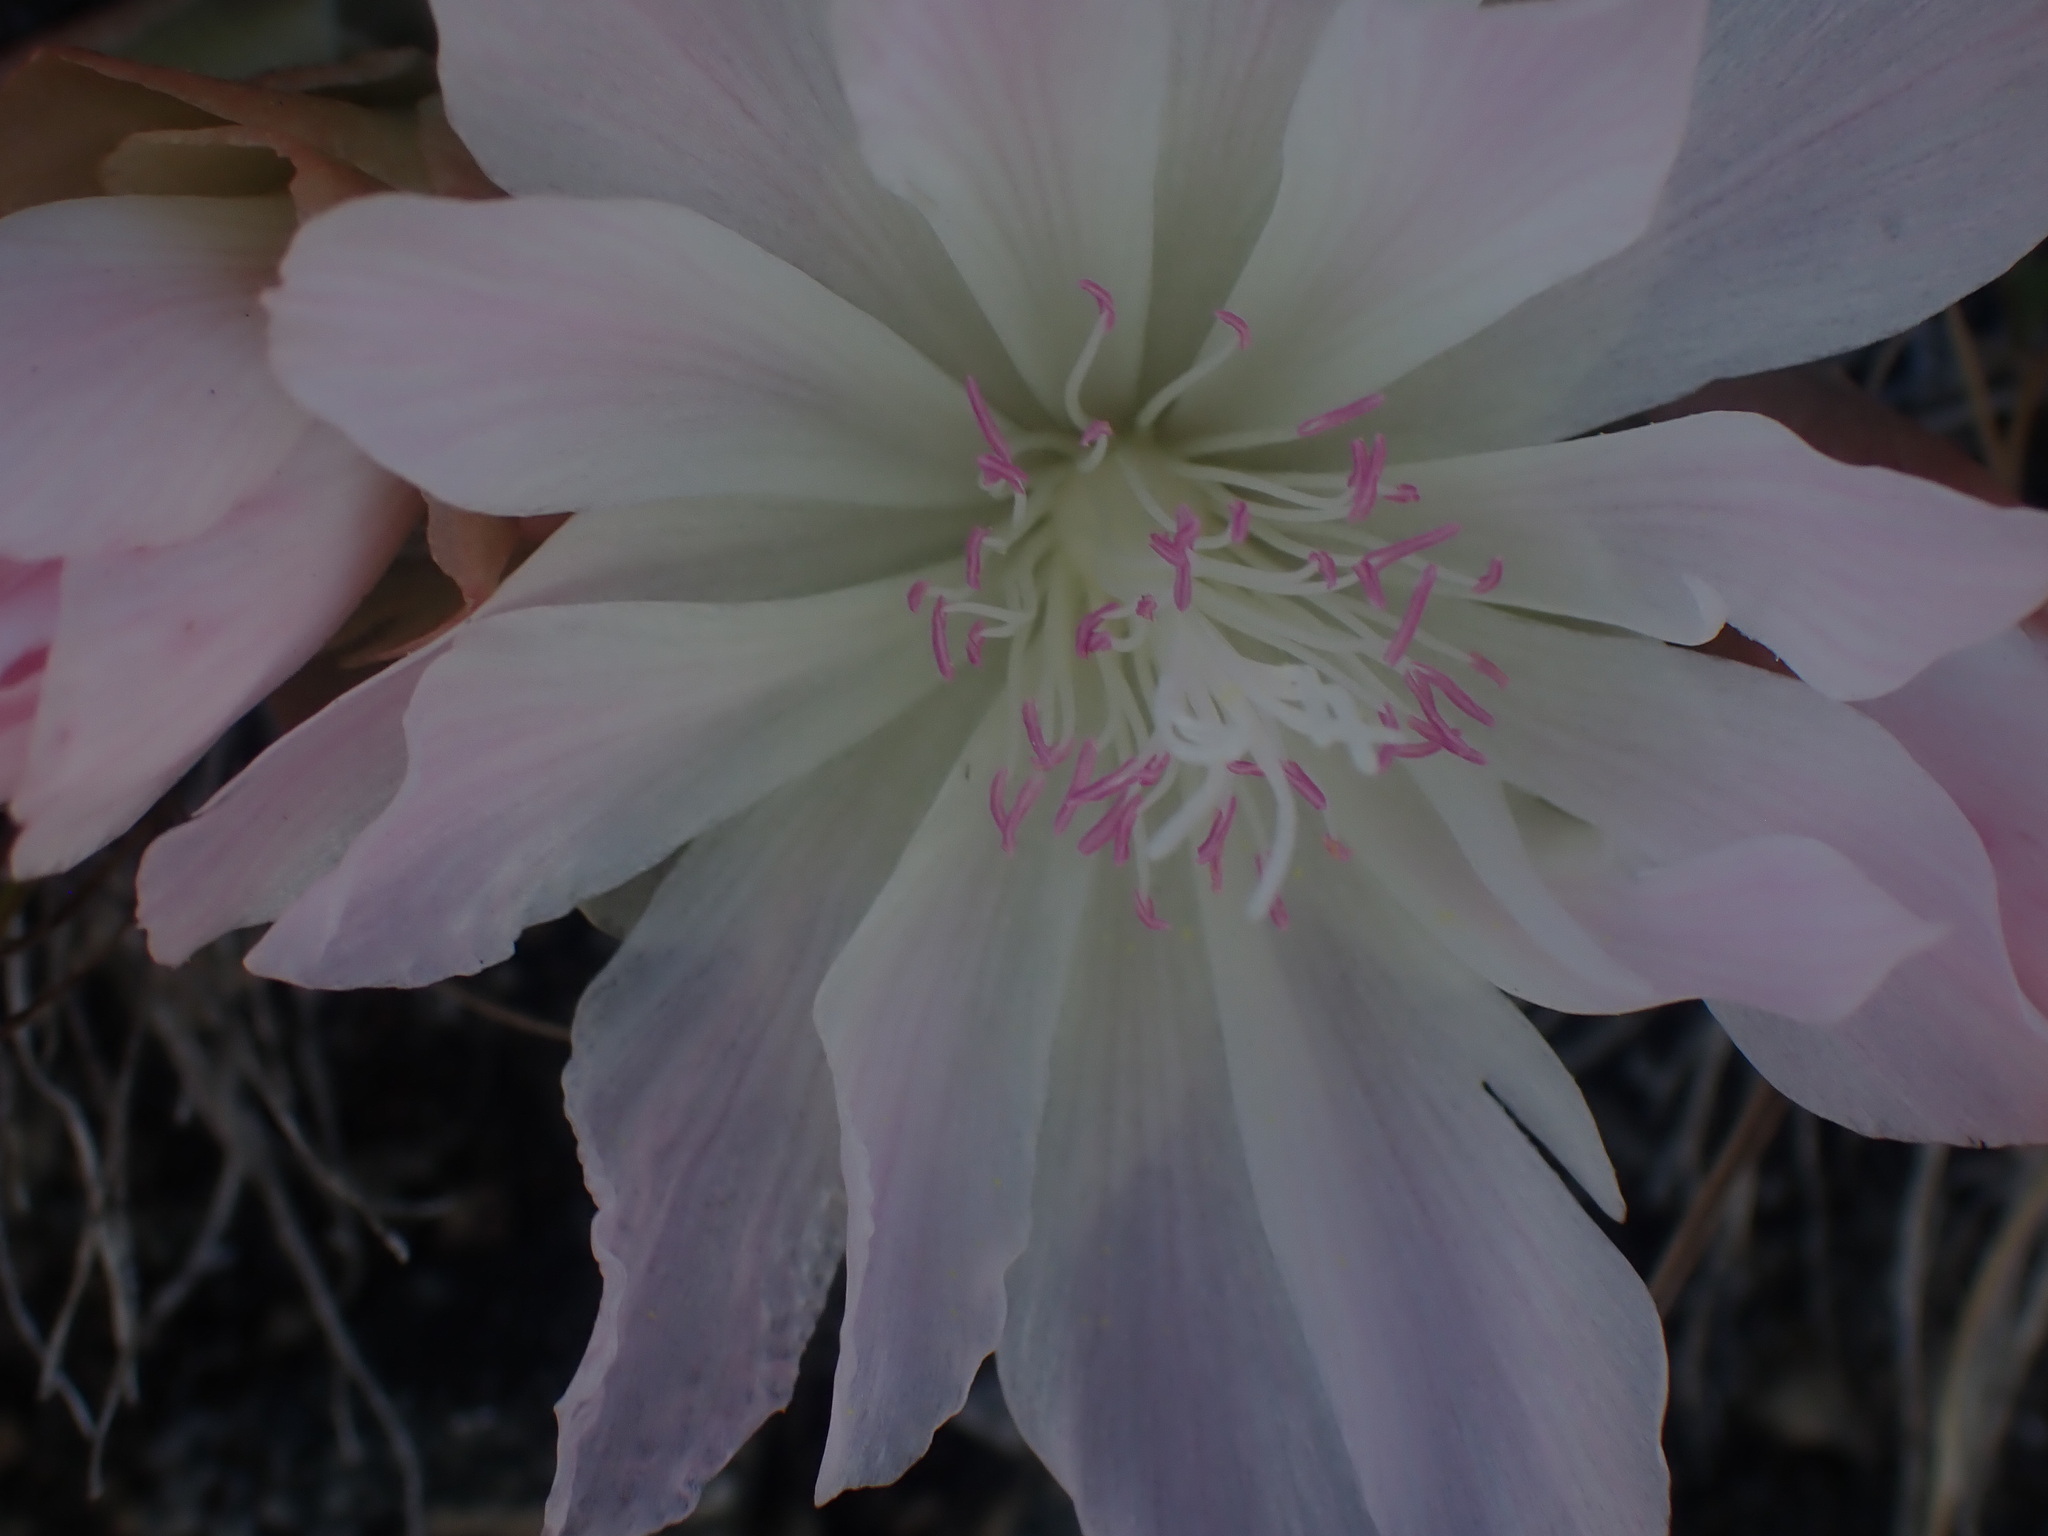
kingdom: Plantae
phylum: Tracheophyta
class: Magnoliopsida
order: Caryophyllales
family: Montiaceae
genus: Lewisia
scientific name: Lewisia rediviva
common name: Bitter-root
